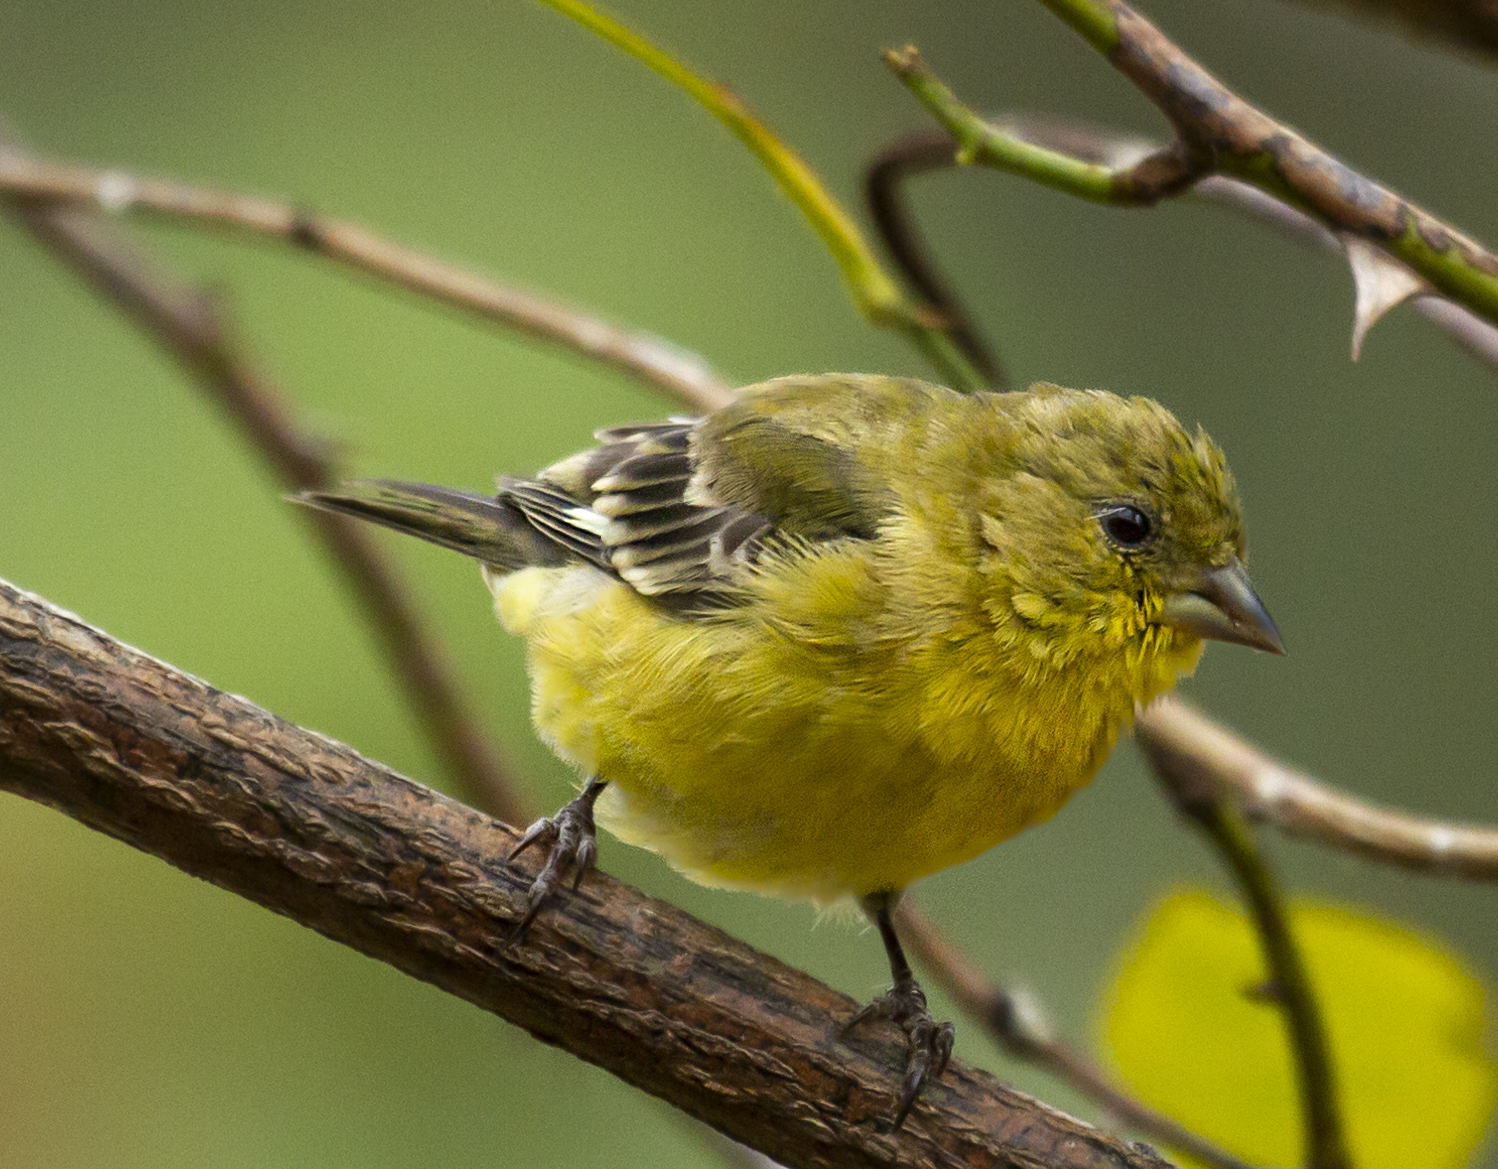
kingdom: Animalia
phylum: Chordata
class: Aves
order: Passeriformes
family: Fringillidae
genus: Spinus
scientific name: Spinus psaltria
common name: Lesser goldfinch
